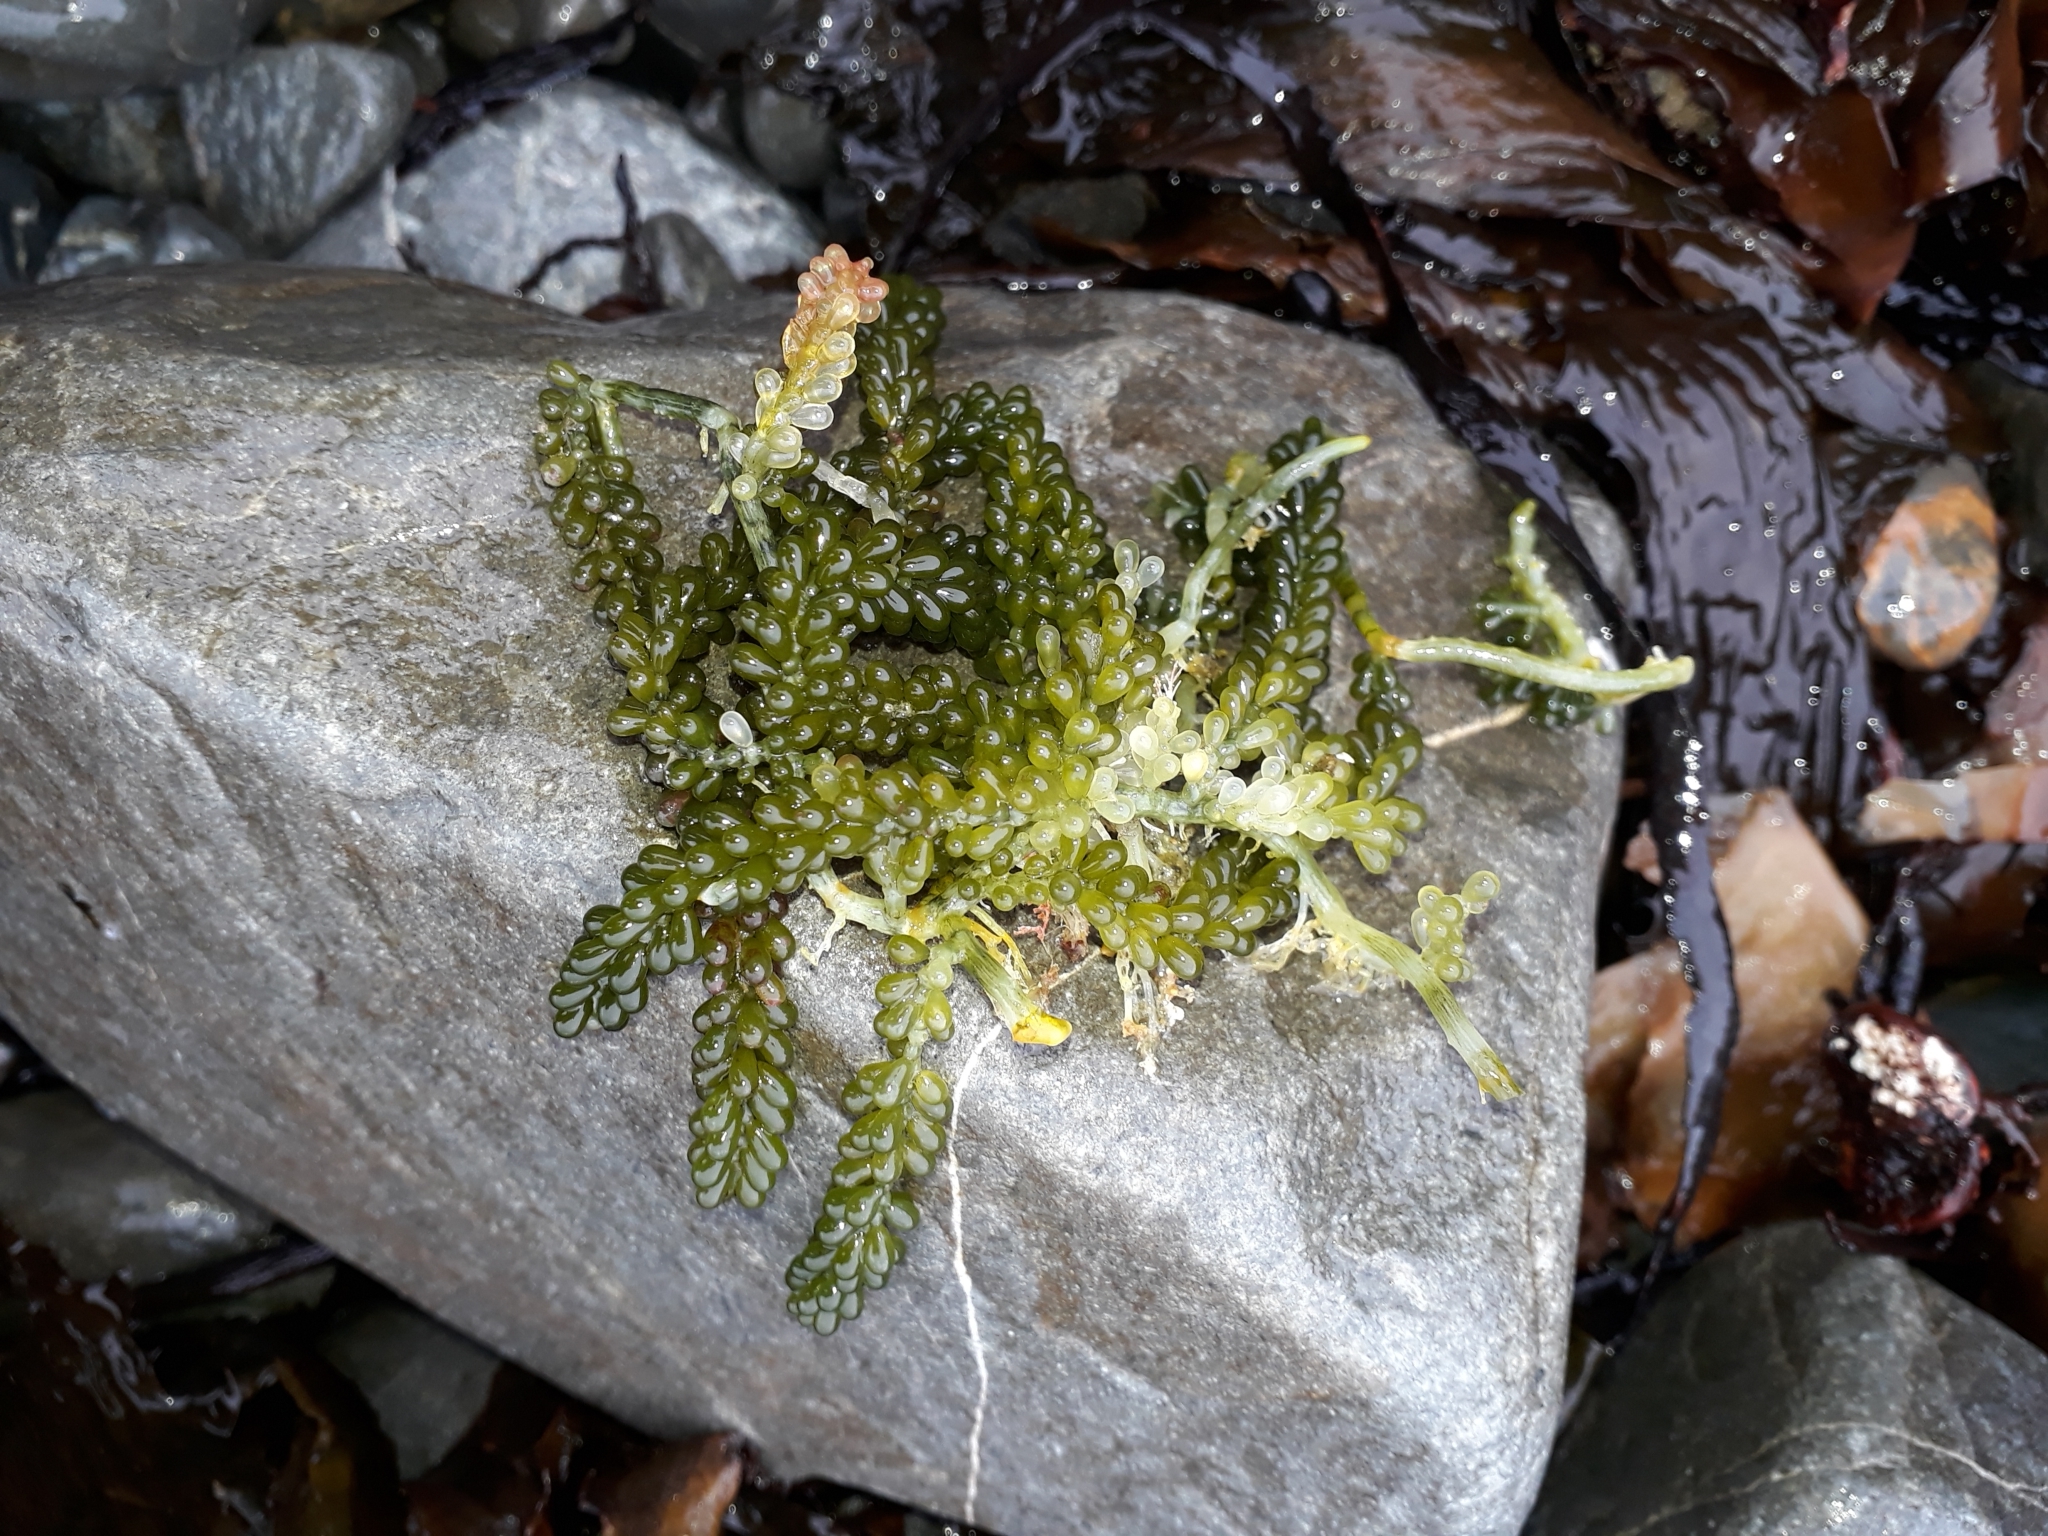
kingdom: Plantae
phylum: Chlorophyta
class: Ulvophyceae
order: Bryopsidales
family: Caulerpaceae
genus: Caulerpa
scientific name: Caulerpa geminata
